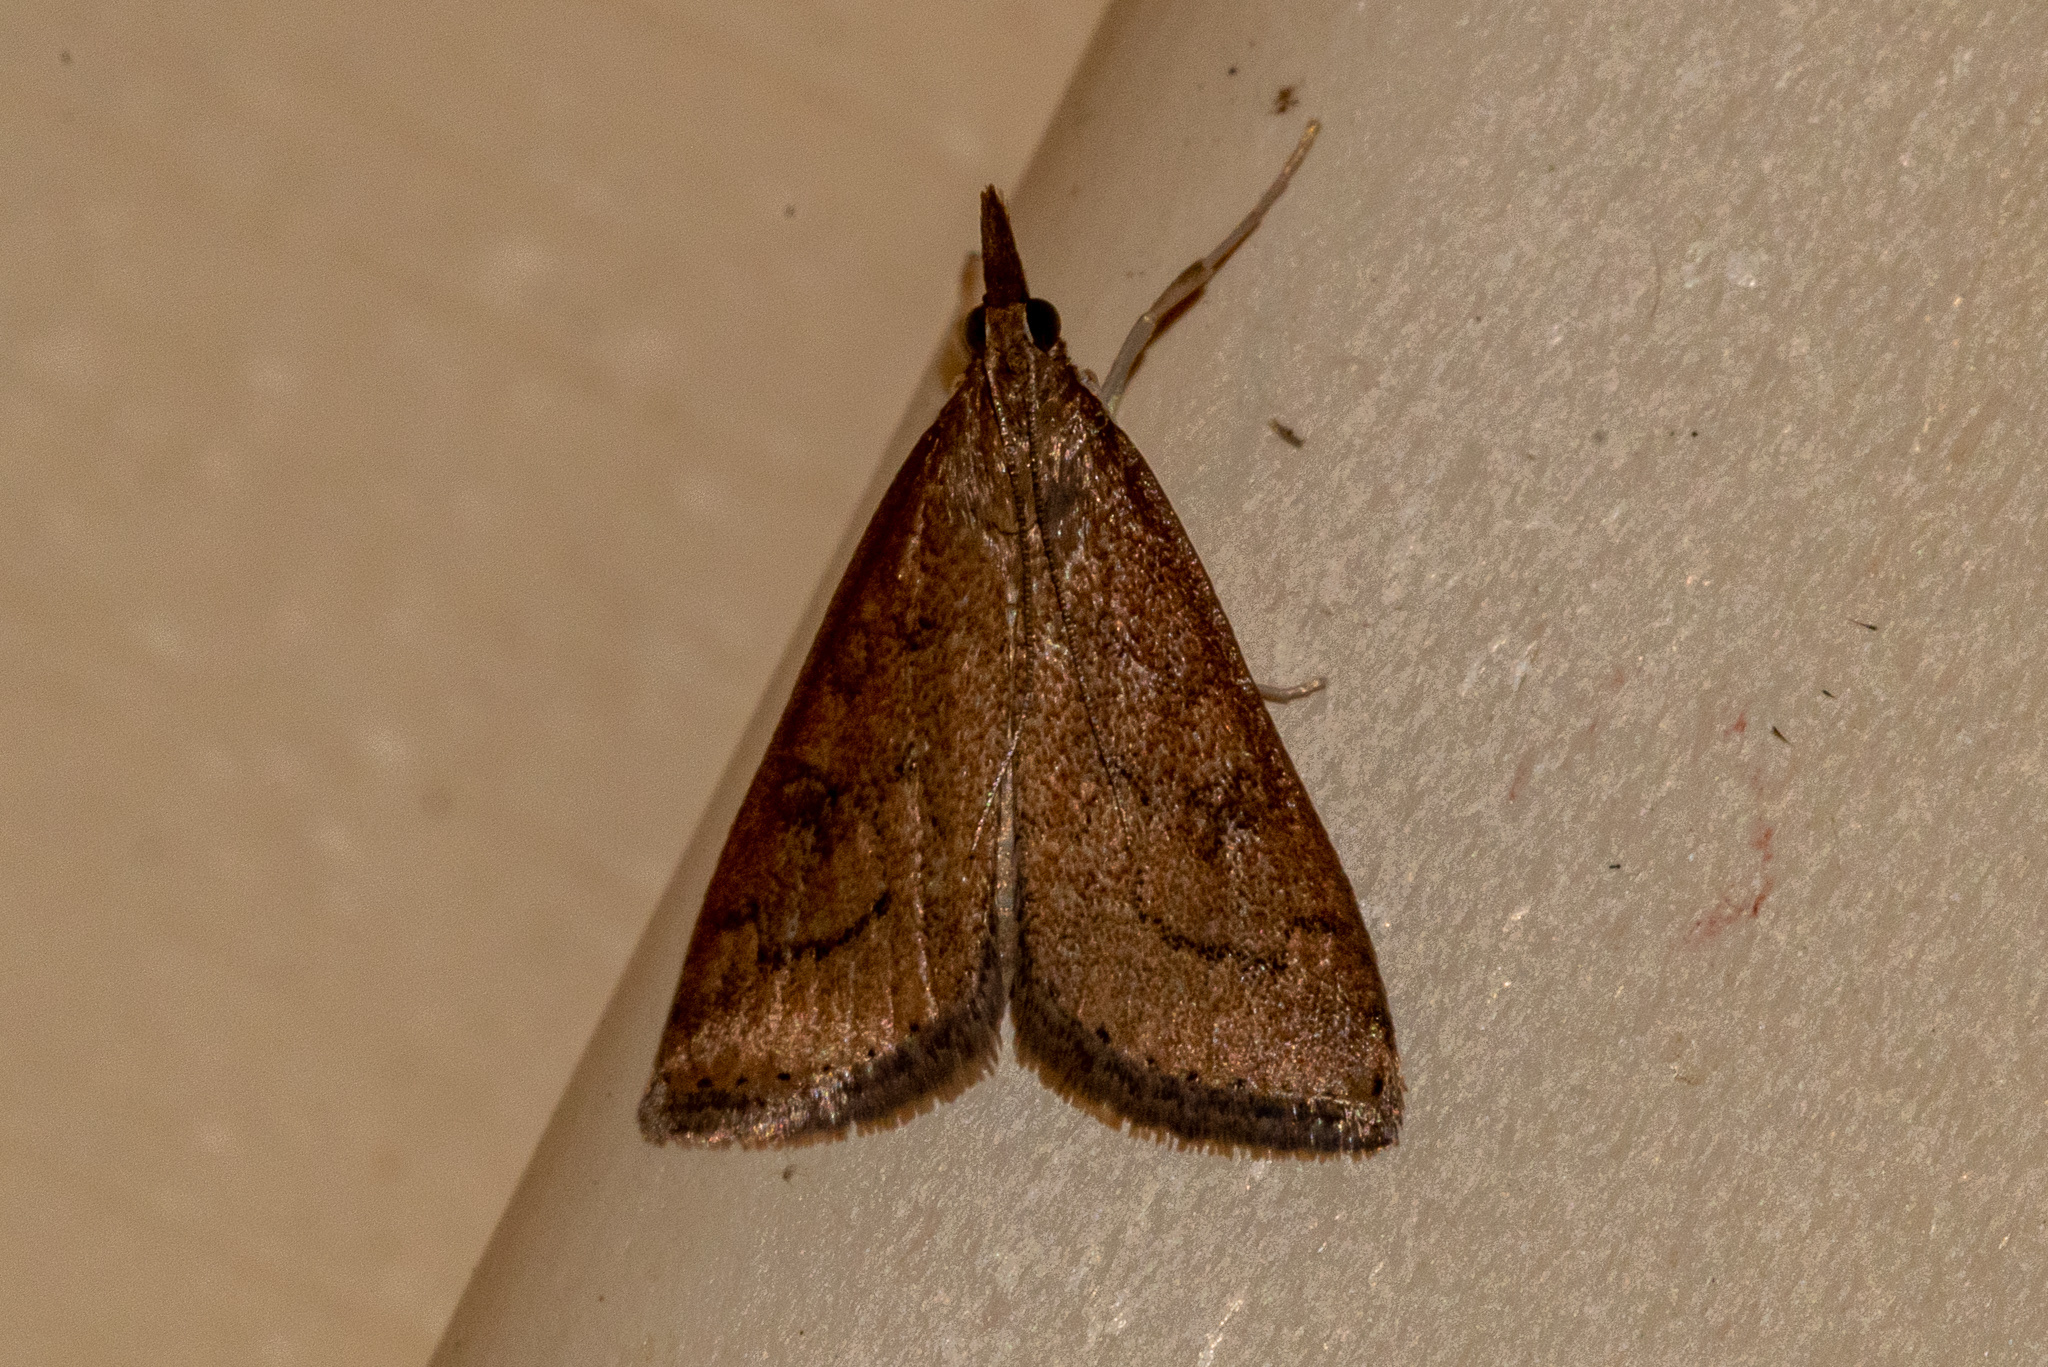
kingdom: Animalia
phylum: Arthropoda
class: Insecta
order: Lepidoptera
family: Crambidae
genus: Udea
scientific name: Udea rubigalis
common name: Celery leaftier moth
